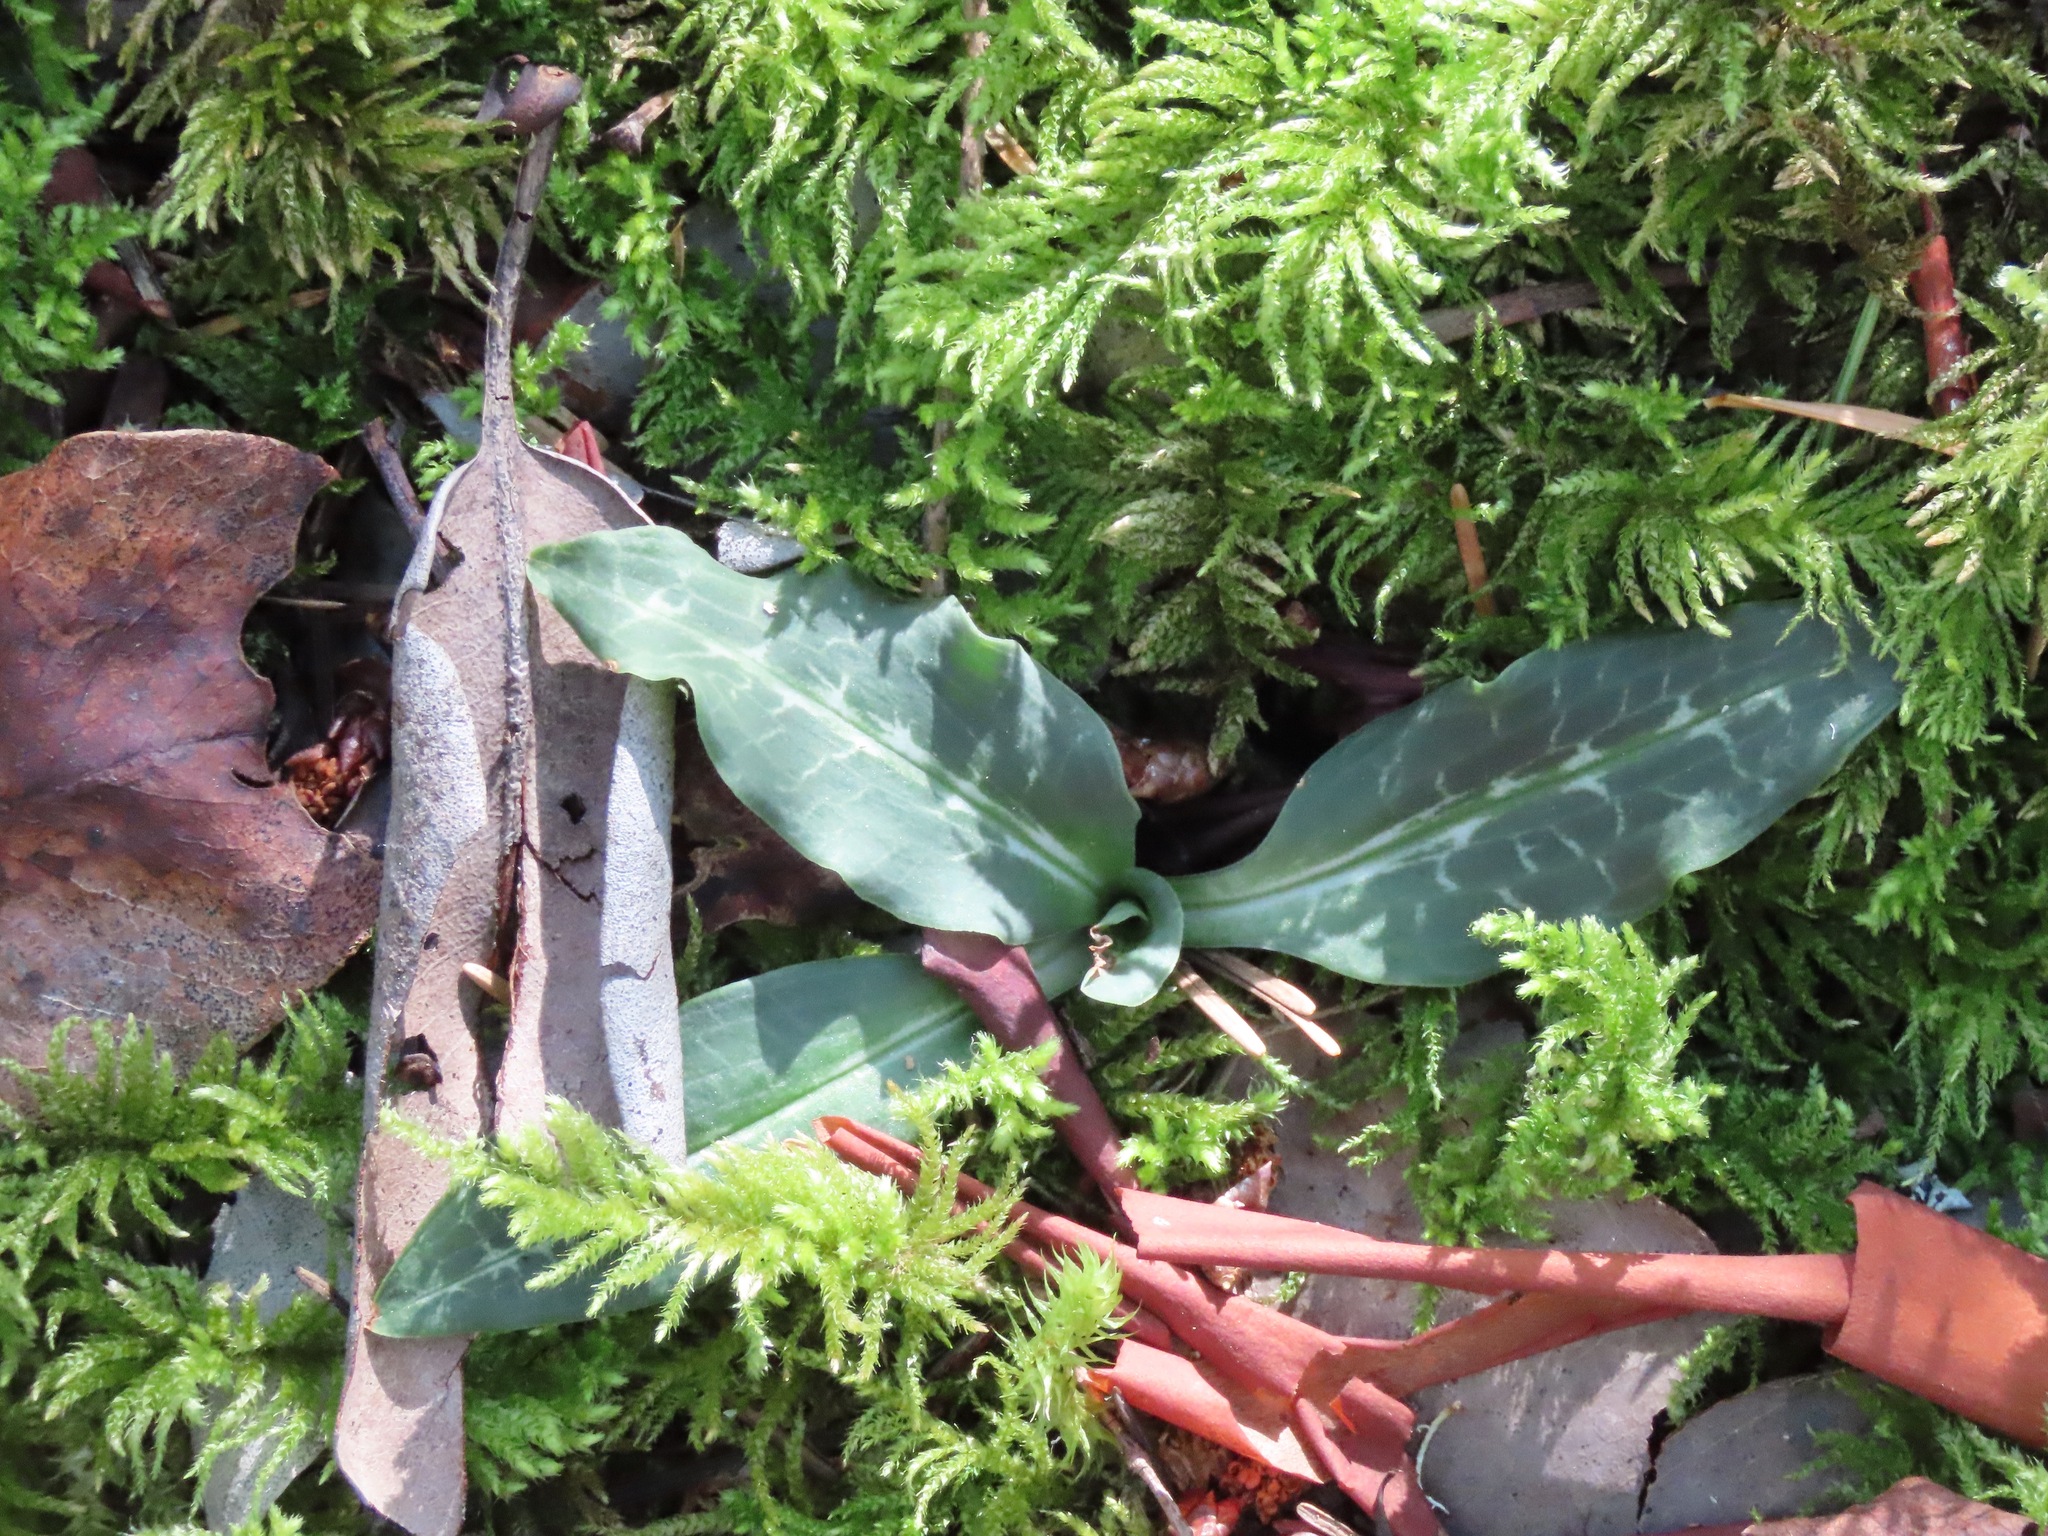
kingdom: Plantae
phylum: Tracheophyta
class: Liliopsida
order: Asparagales
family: Orchidaceae
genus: Goodyera
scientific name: Goodyera oblongifolia
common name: Giant rattlesnake-plantain
